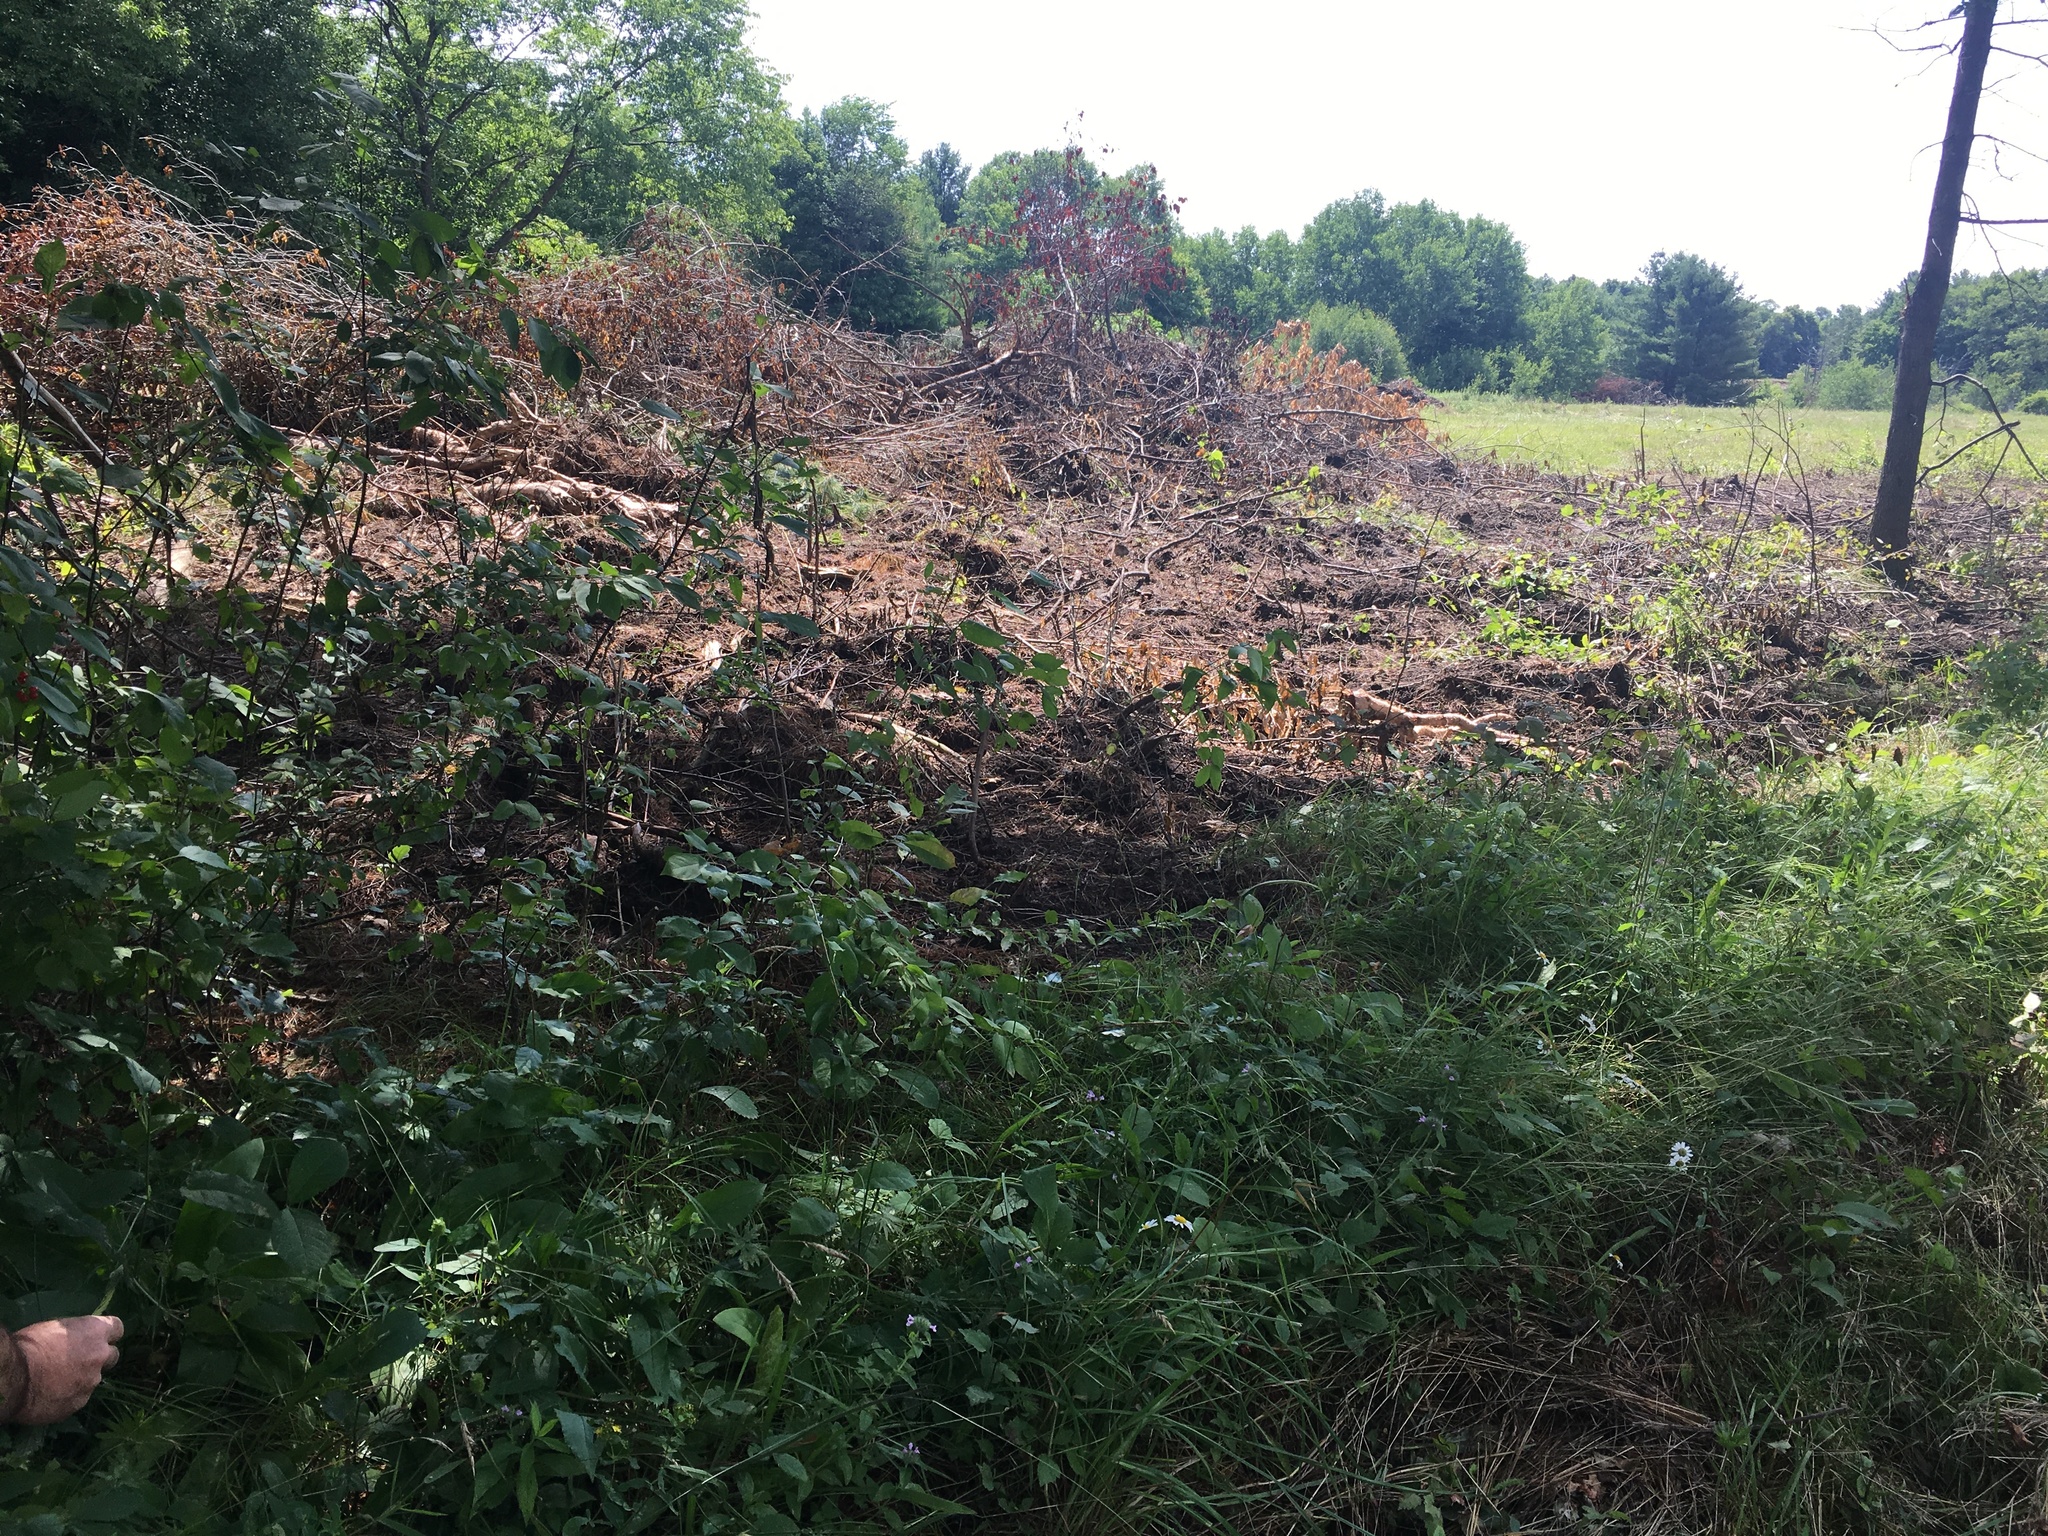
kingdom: Plantae
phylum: Tracheophyta
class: Magnoliopsida
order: Gentianales
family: Gentianaceae
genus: Frasera
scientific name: Frasera caroliniensis
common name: American columbo
